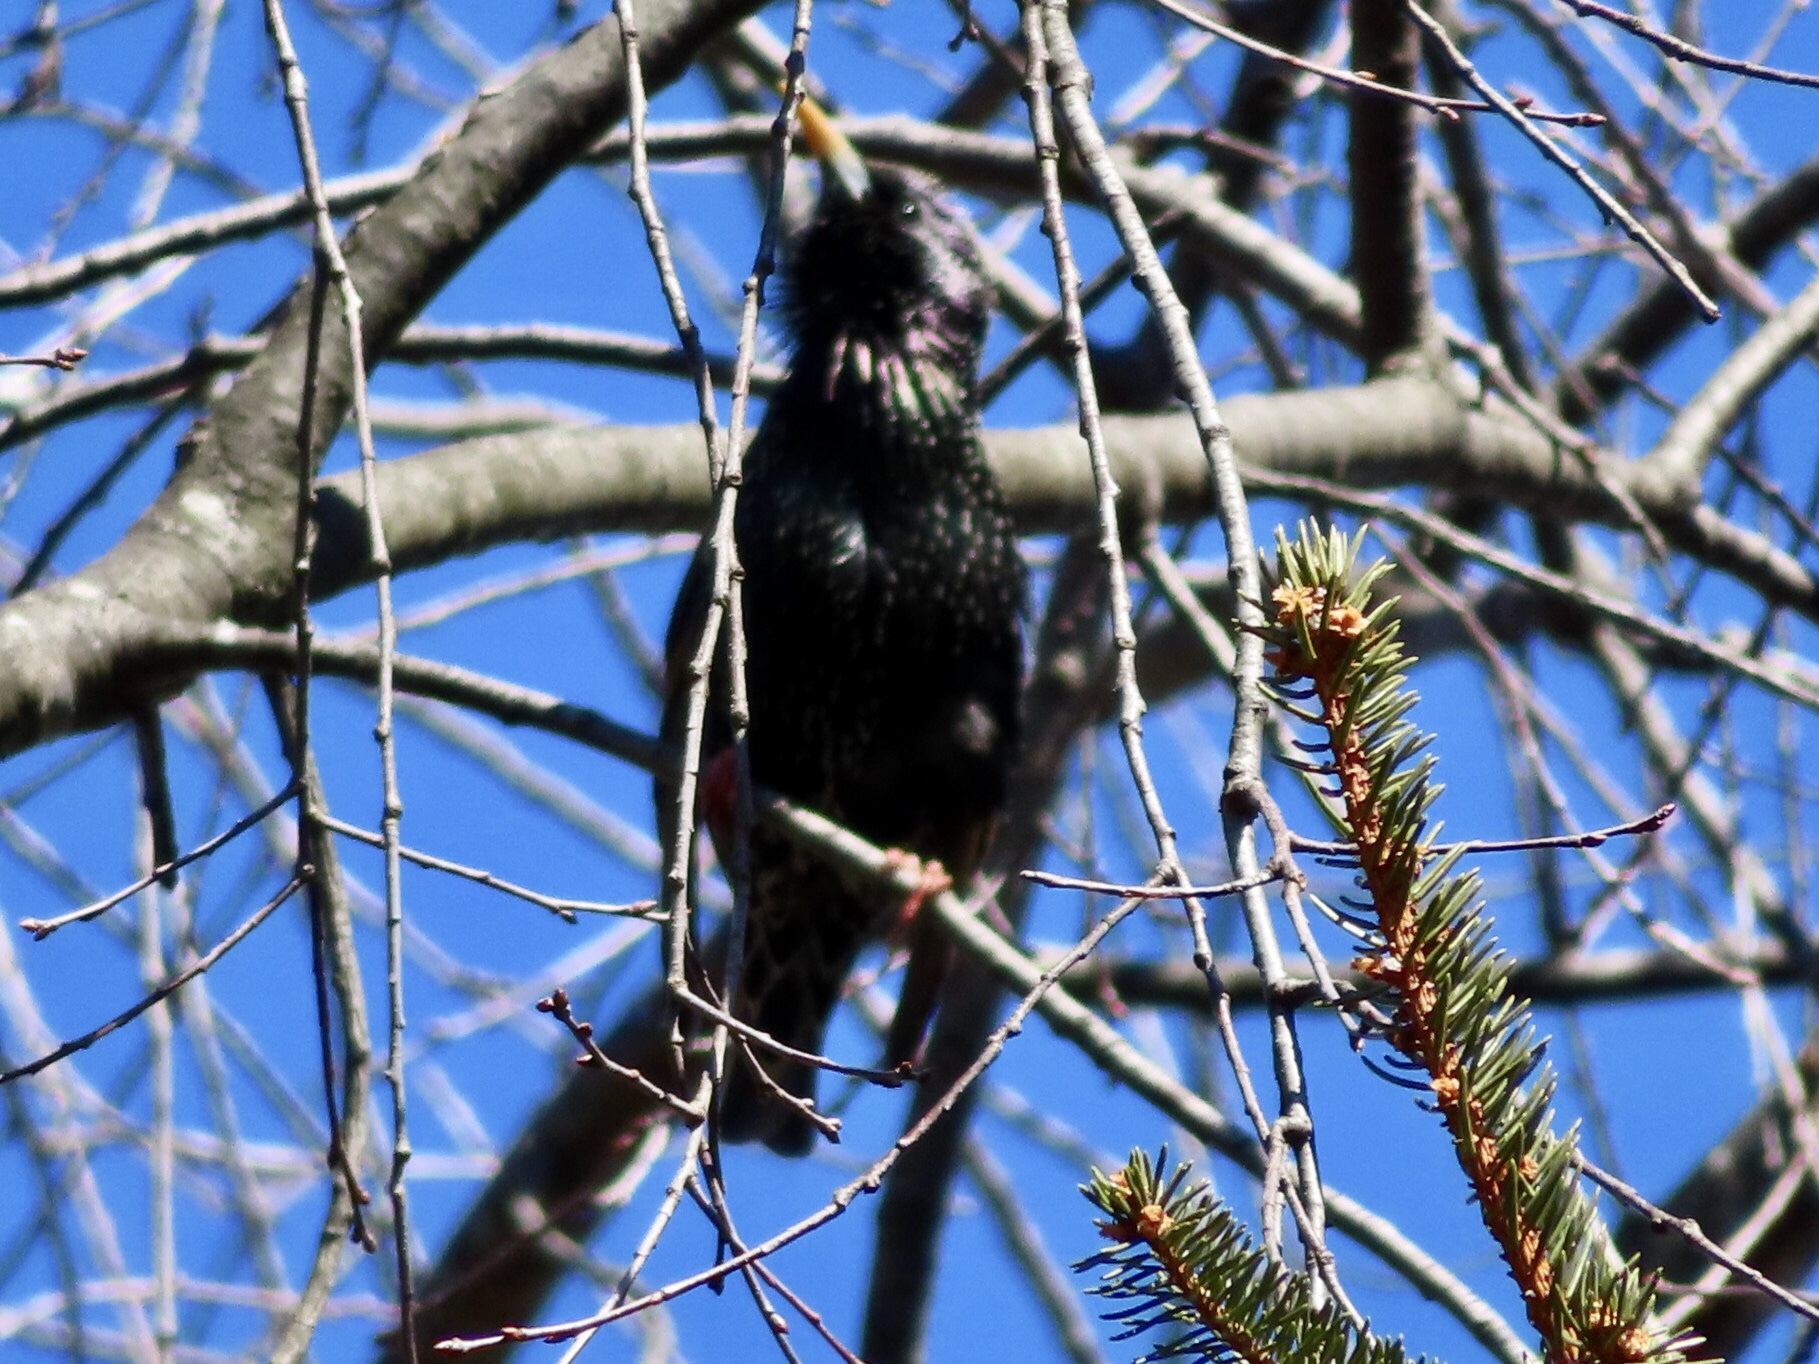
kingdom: Animalia
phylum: Chordata
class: Aves
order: Passeriformes
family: Sturnidae
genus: Sturnus
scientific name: Sturnus vulgaris
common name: Common starling
